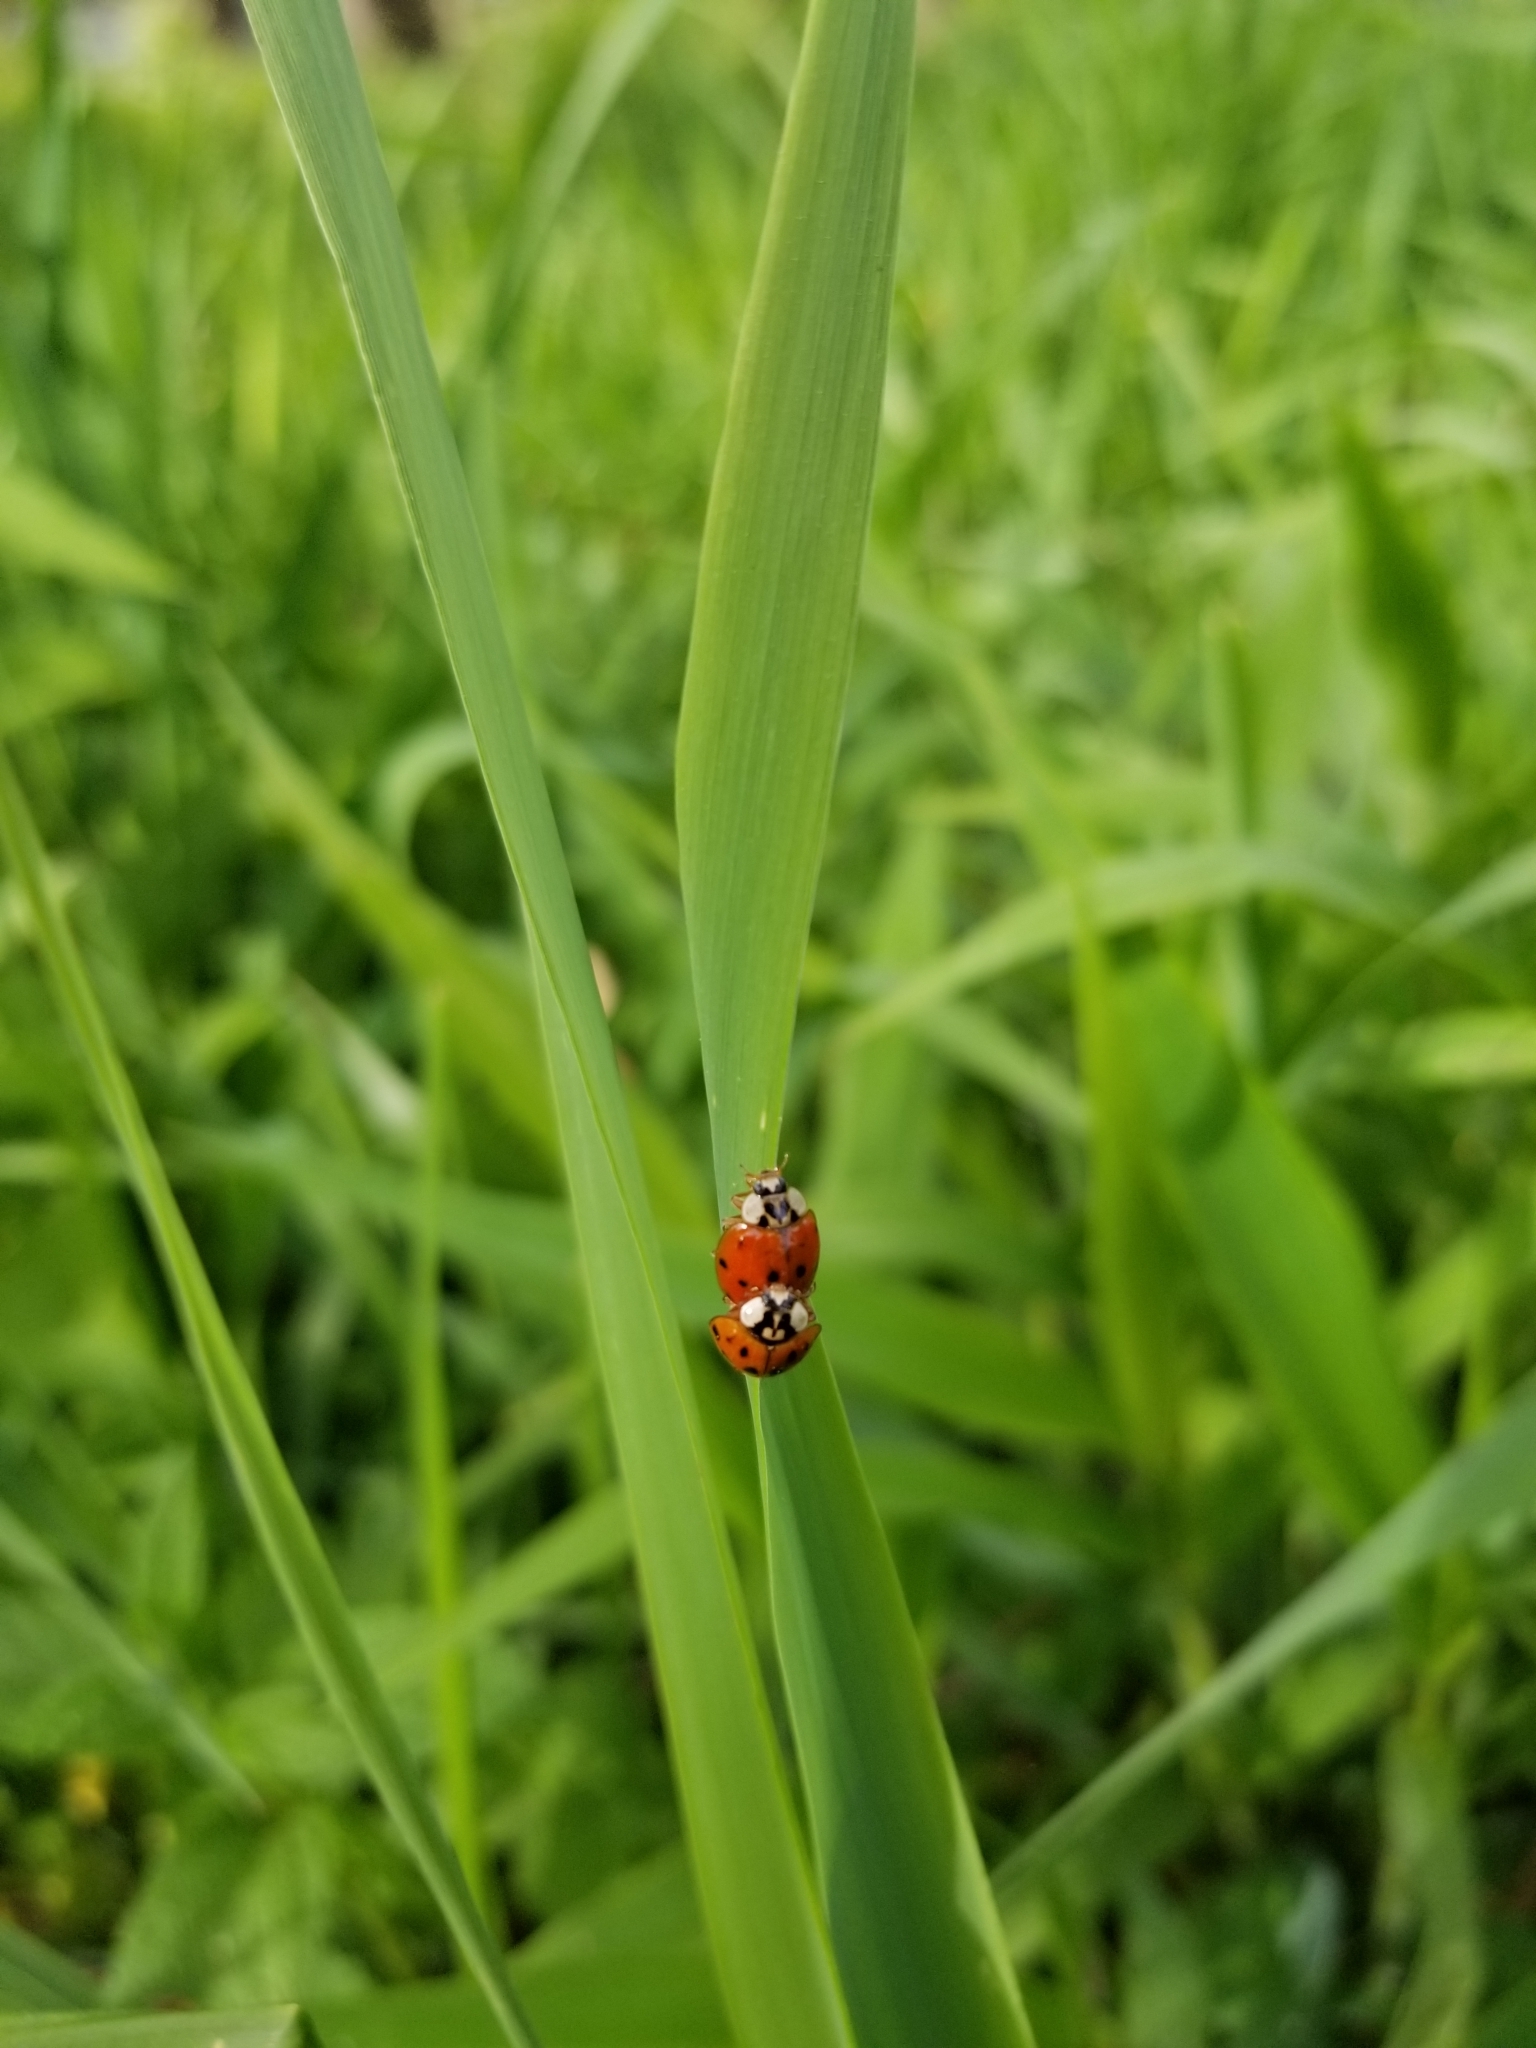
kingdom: Animalia
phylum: Arthropoda
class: Insecta
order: Coleoptera
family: Coccinellidae
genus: Harmonia
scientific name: Harmonia axyridis
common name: Harlequin ladybird
